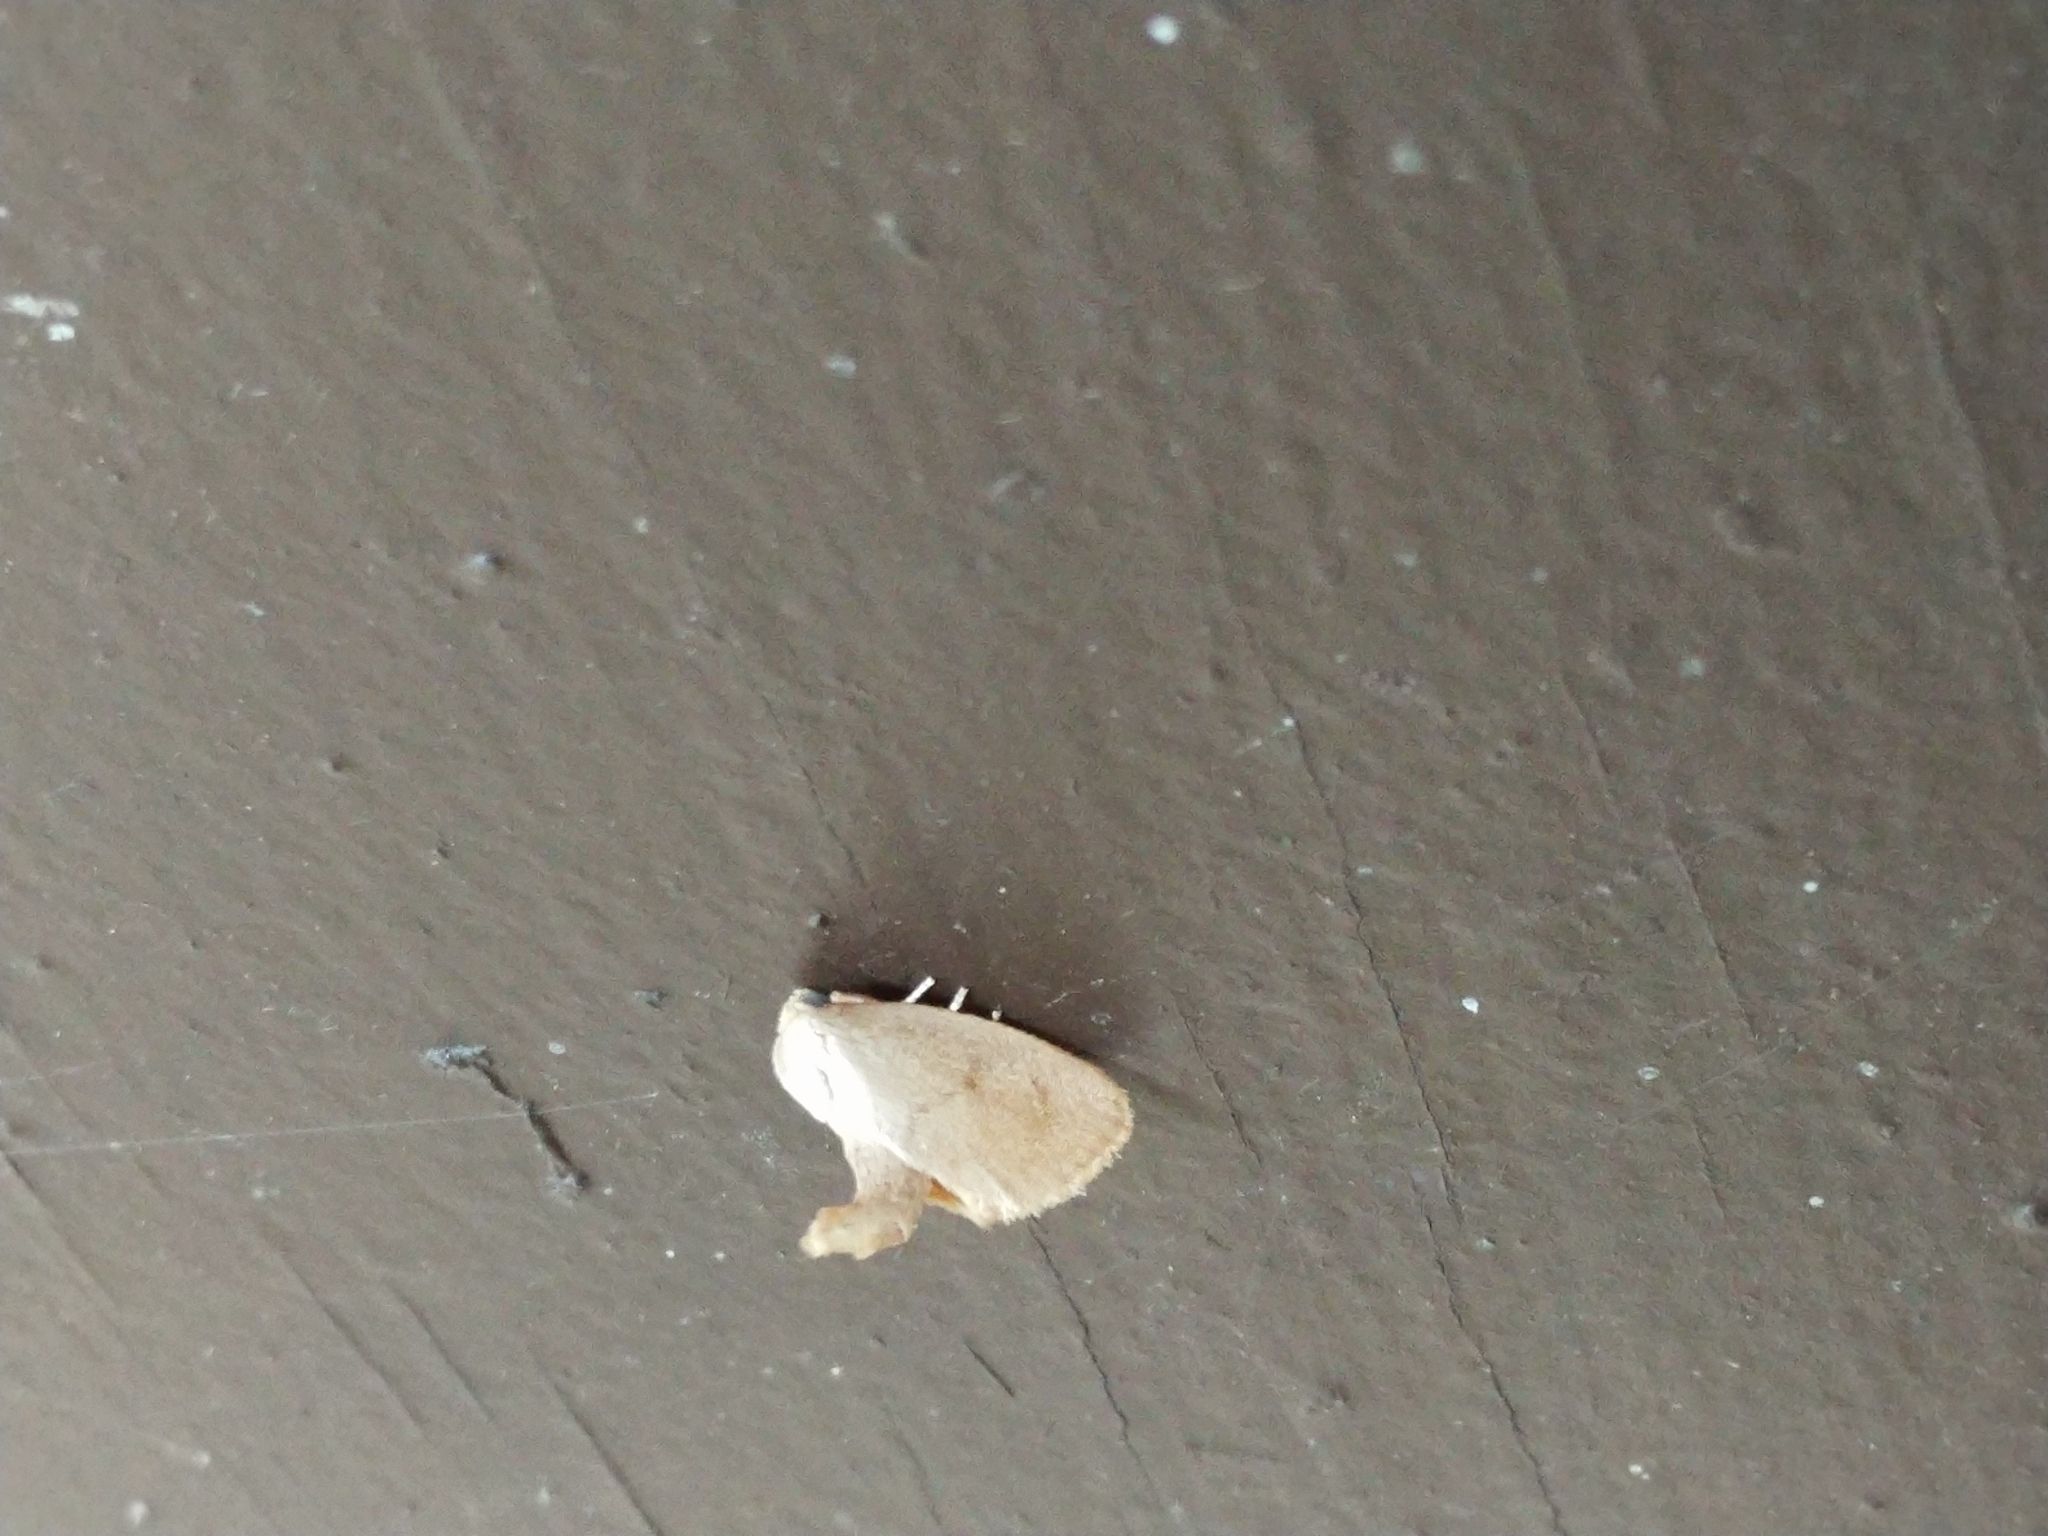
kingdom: Animalia
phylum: Arthropoda
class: Insecta
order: Lepidoptera
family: Limacodidae
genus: Tortricidia
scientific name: Tortricidia pallida
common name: Red-crossed button slug moth
